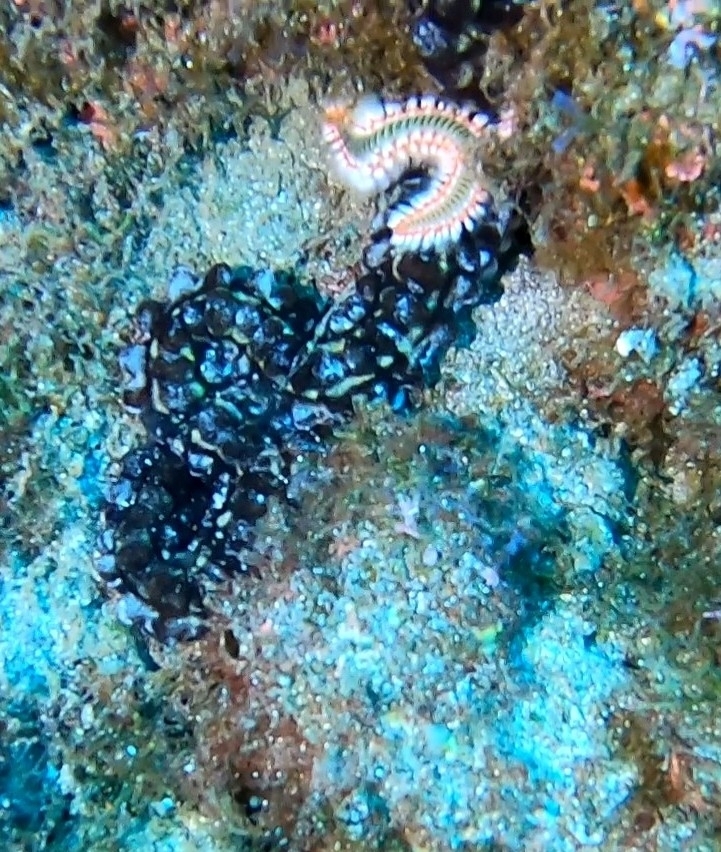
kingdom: Animalia
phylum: Echinodermata
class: Holothuroidea
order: Apodida
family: Synaptidae
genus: Euapta
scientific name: Euapta lappa
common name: Sticky-skinned sea cucumber
